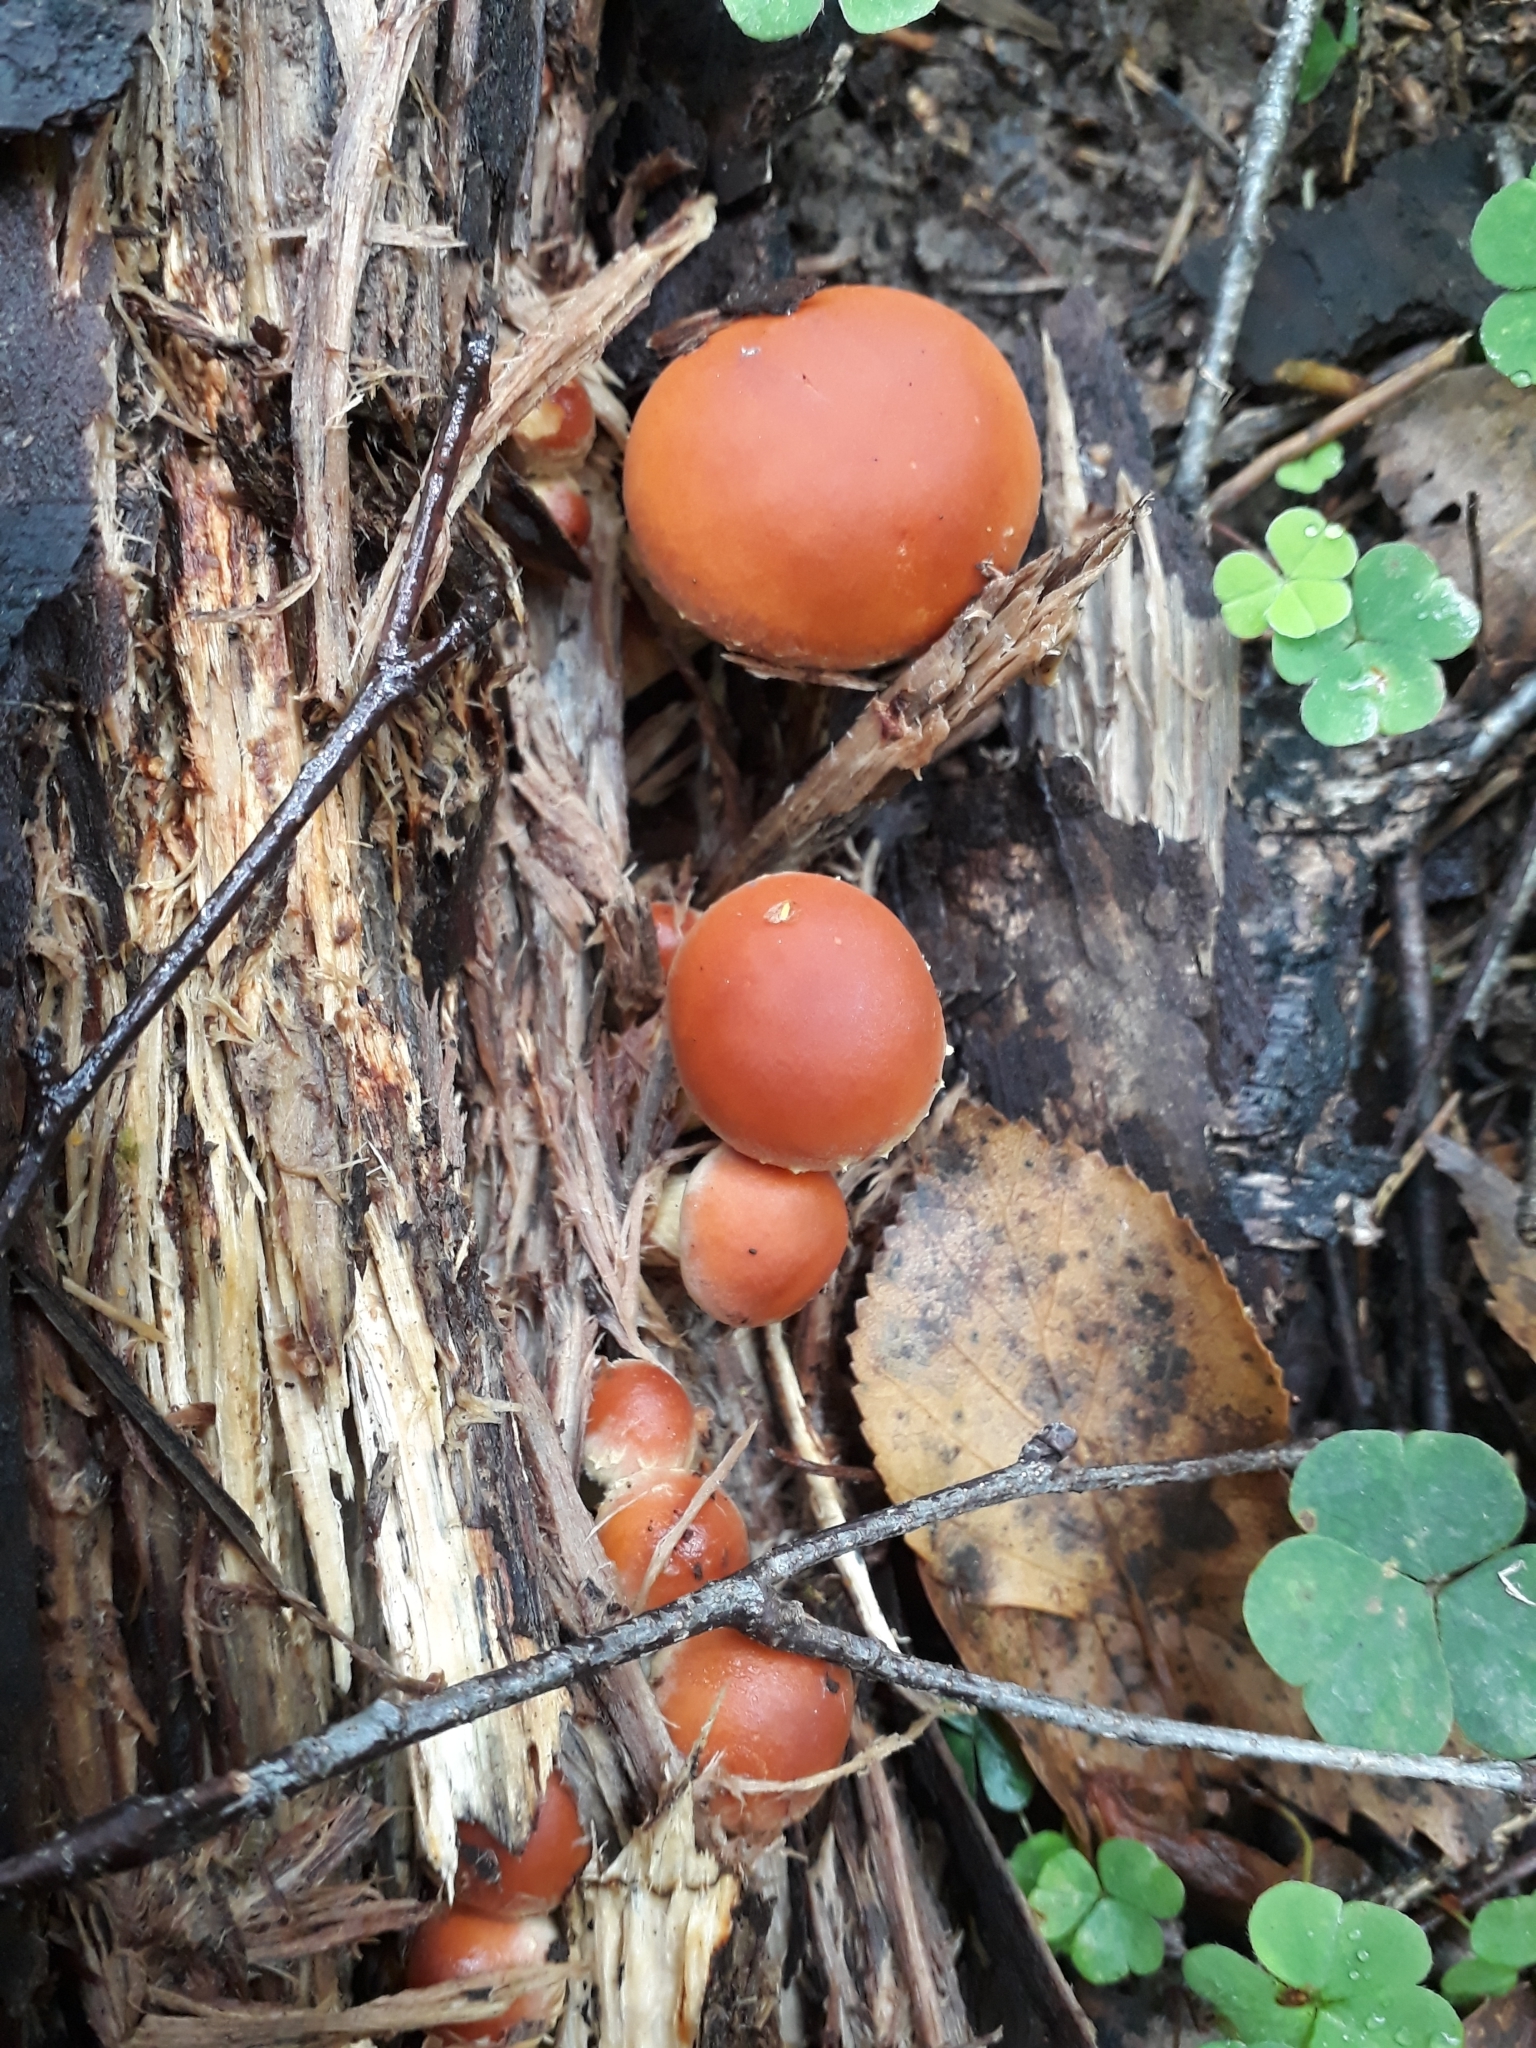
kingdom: Fungi
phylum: Basidiomycota
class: Agaricomycetes
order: Agaricales
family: Strophariaceae
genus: Hypholoma
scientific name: Hypholoma lateritium
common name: Brick caps
